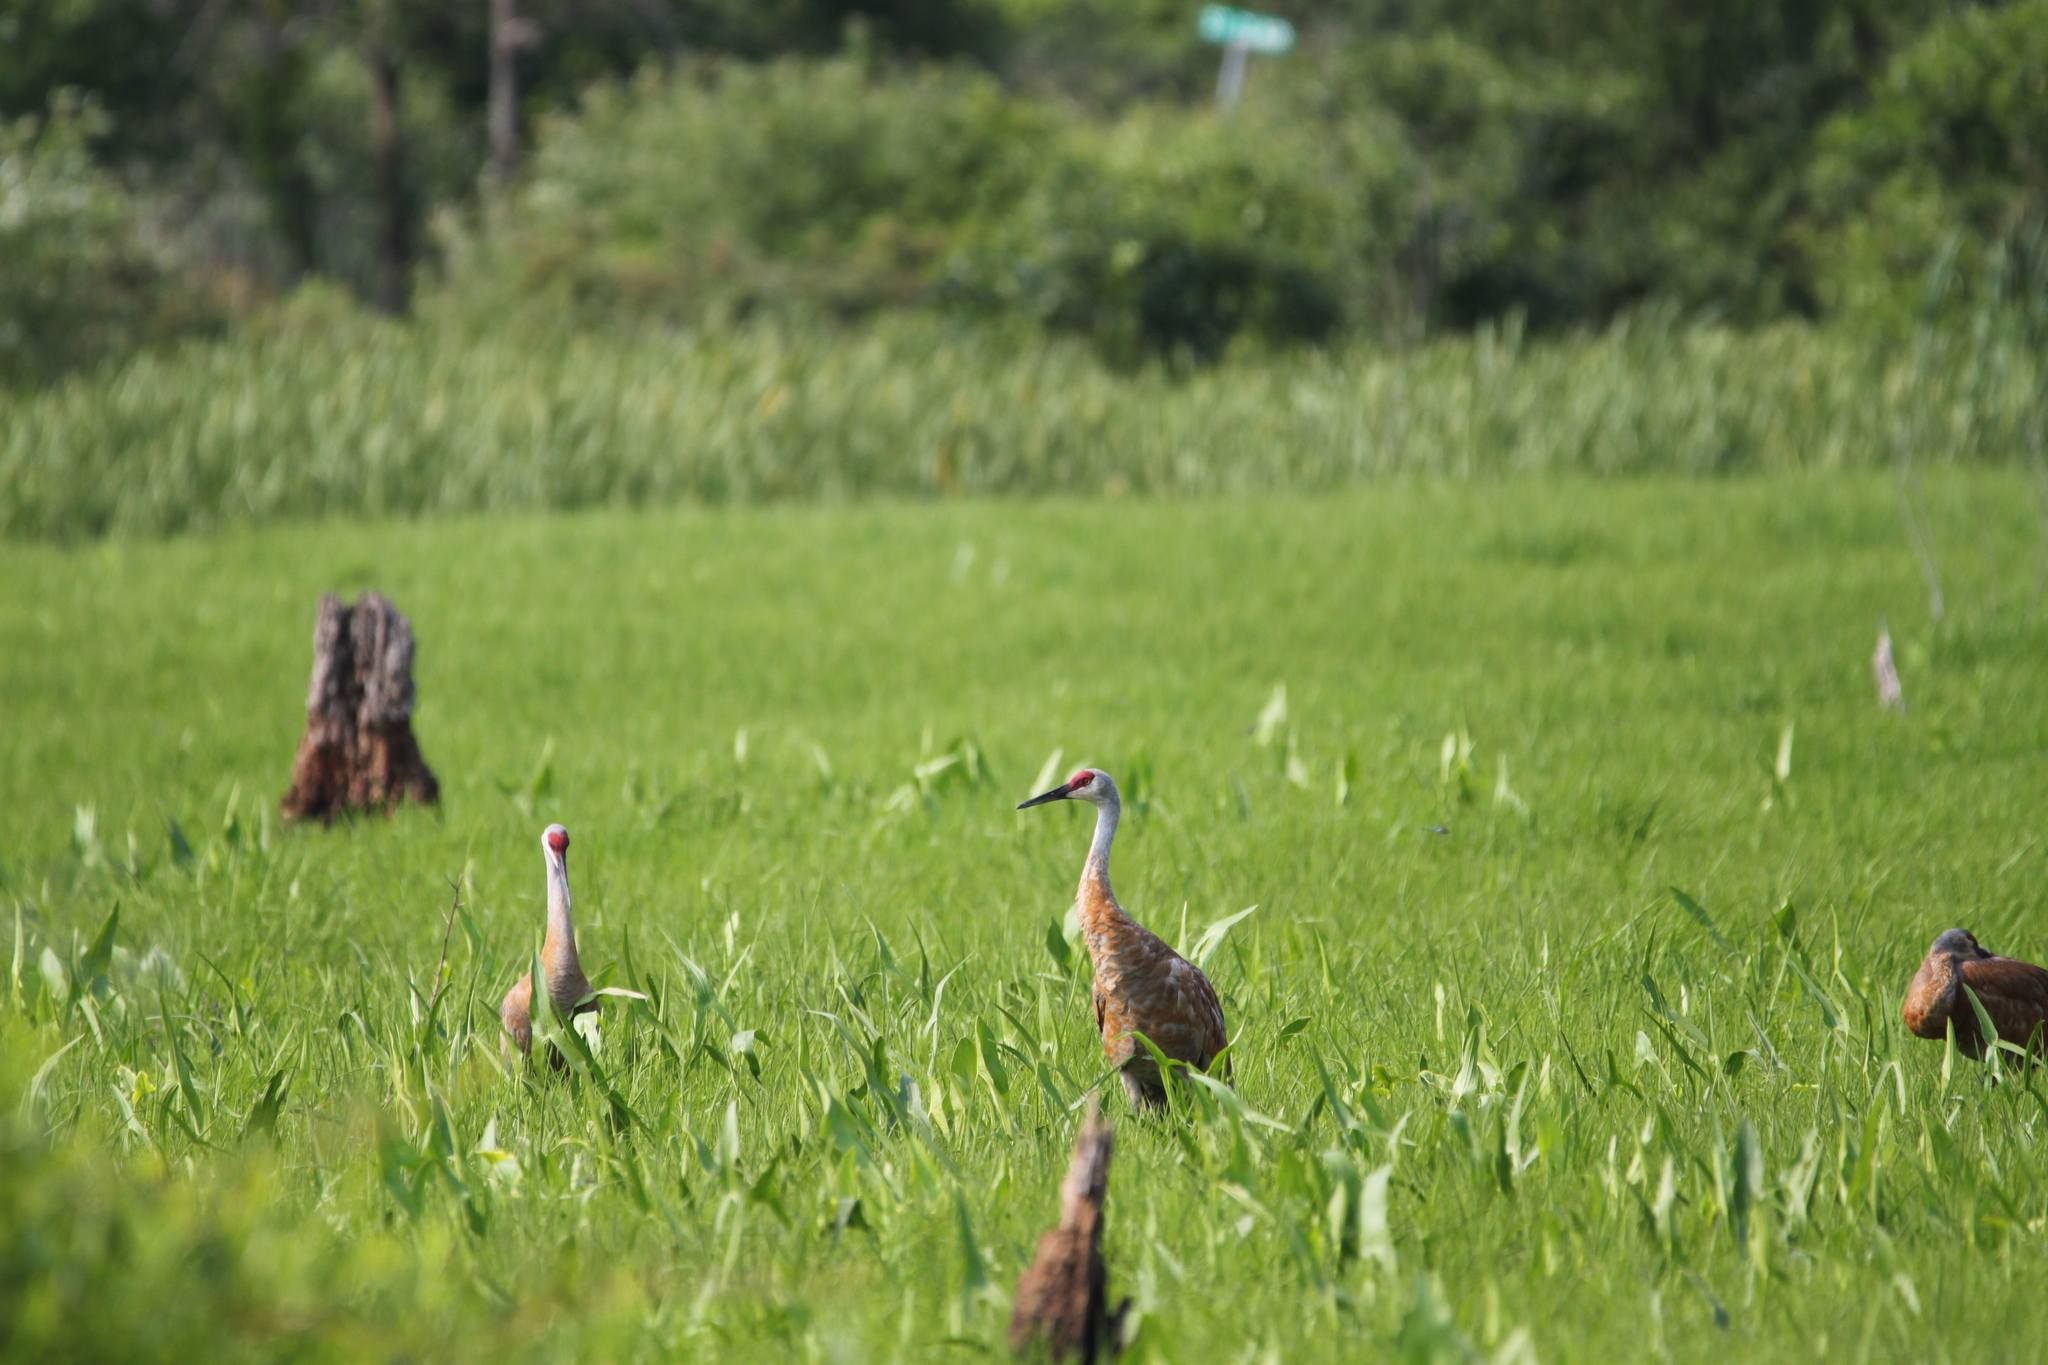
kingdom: Animalia
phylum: Chordata
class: Aves
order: Gruiformes
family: Gruidae
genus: Grus
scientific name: Grus canadensis
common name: Sandhill crane
